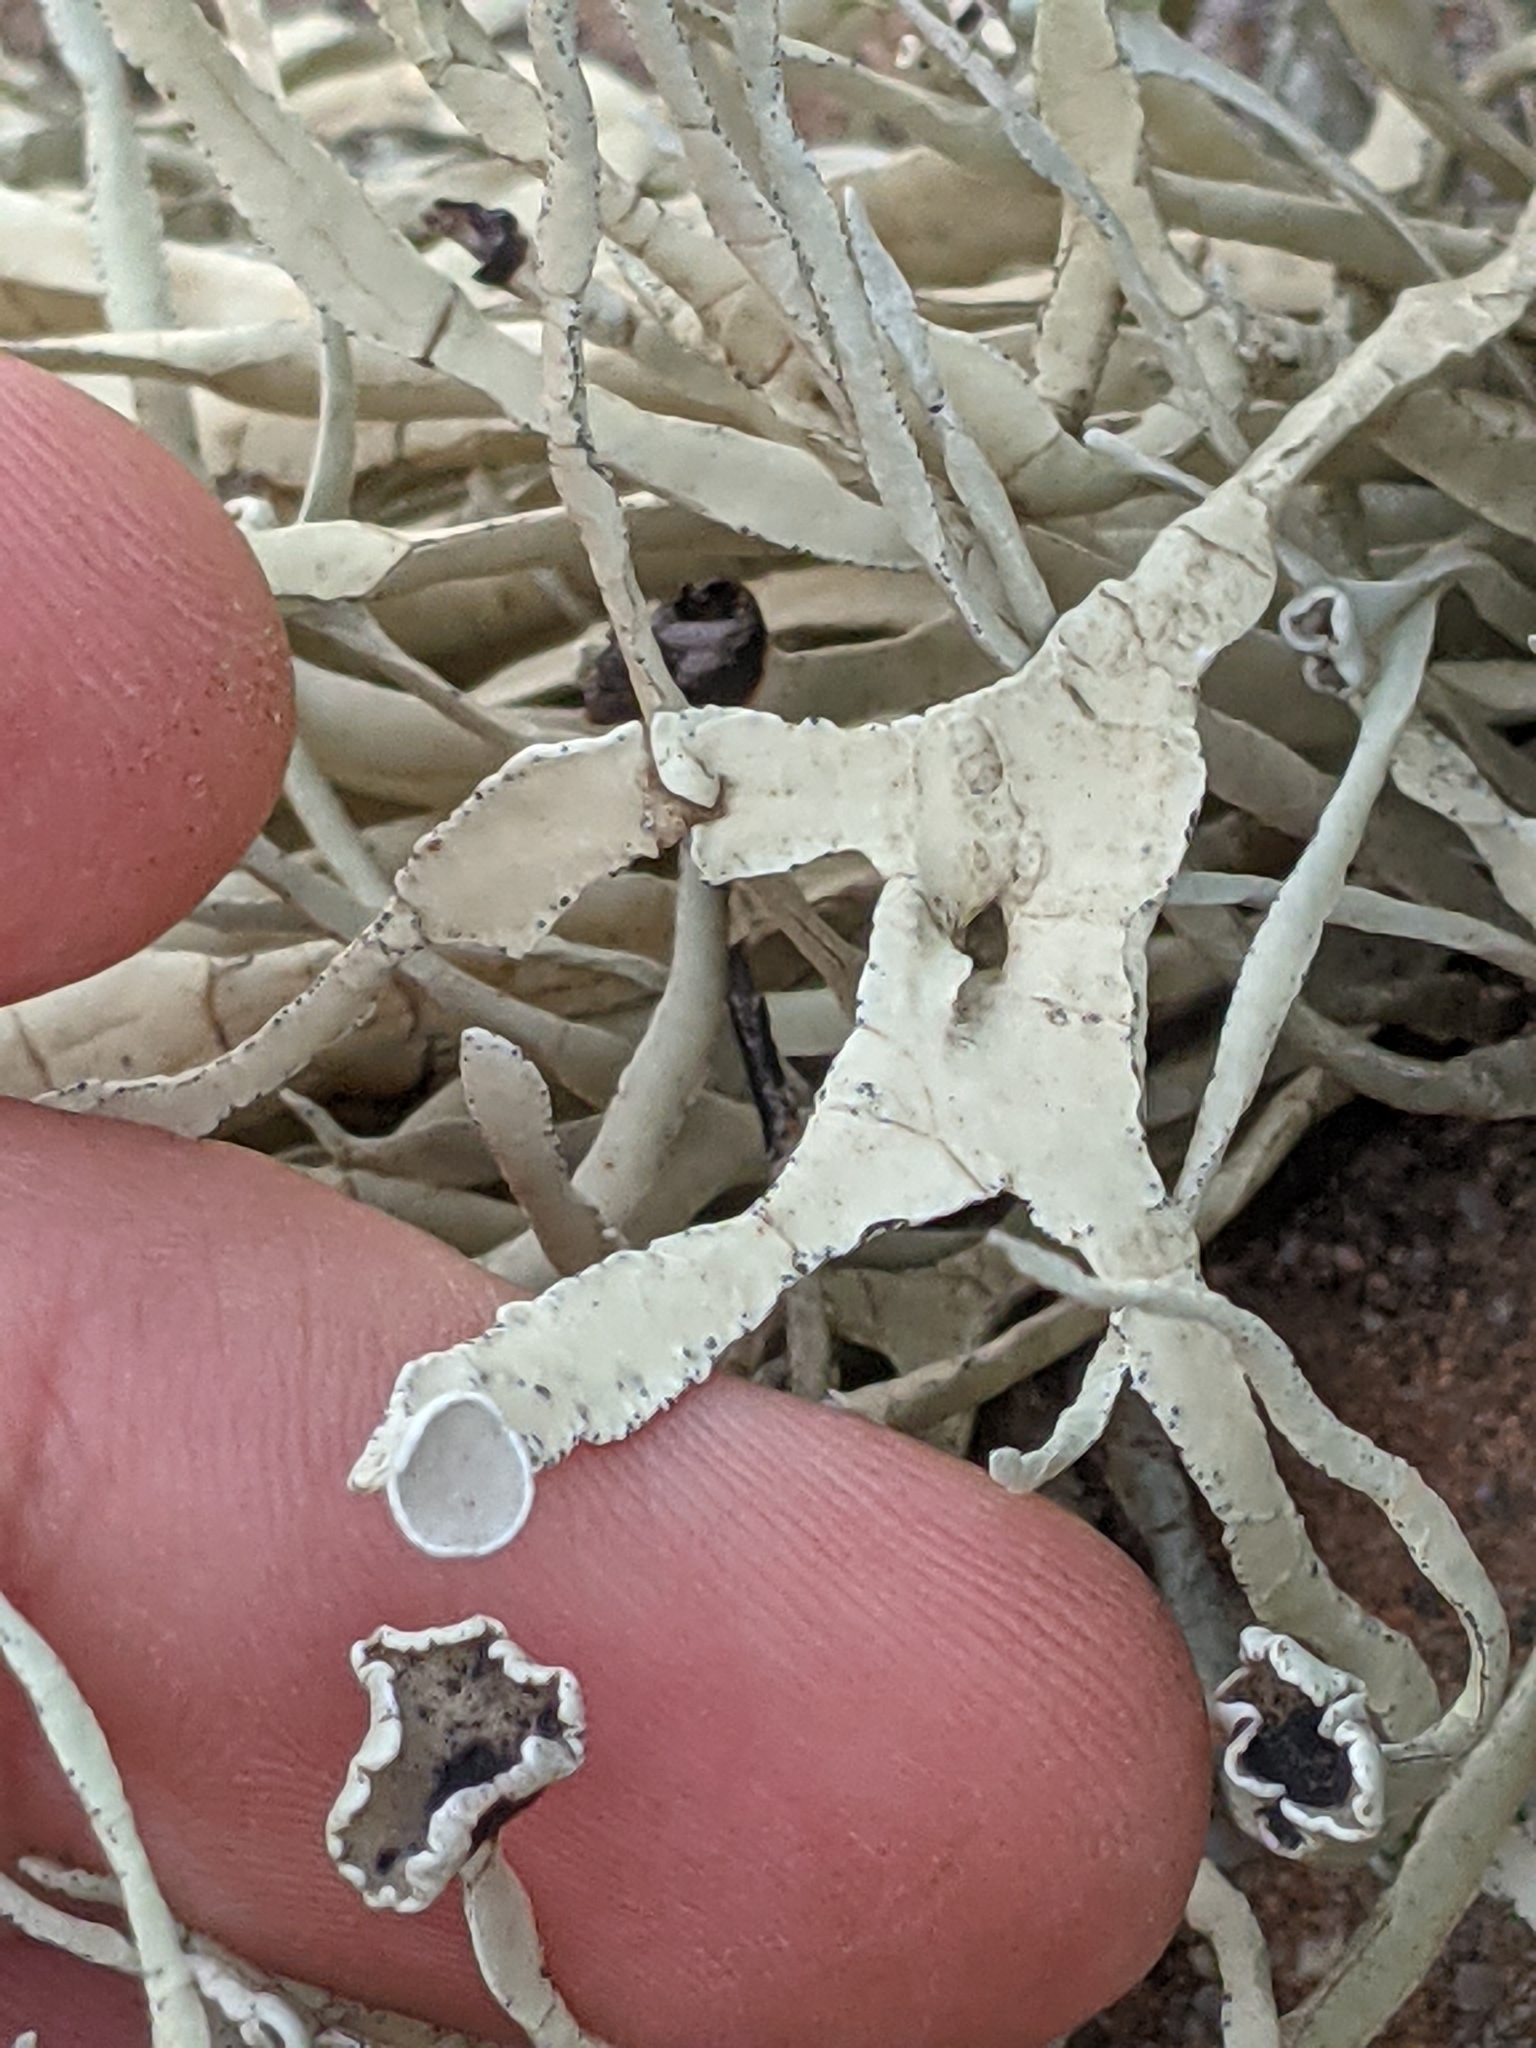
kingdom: Fungi
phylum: Ascomycota
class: Lecanoromycetes
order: Lecanorales
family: Ramalinaceae
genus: Niebla
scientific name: Niebla laevigata
